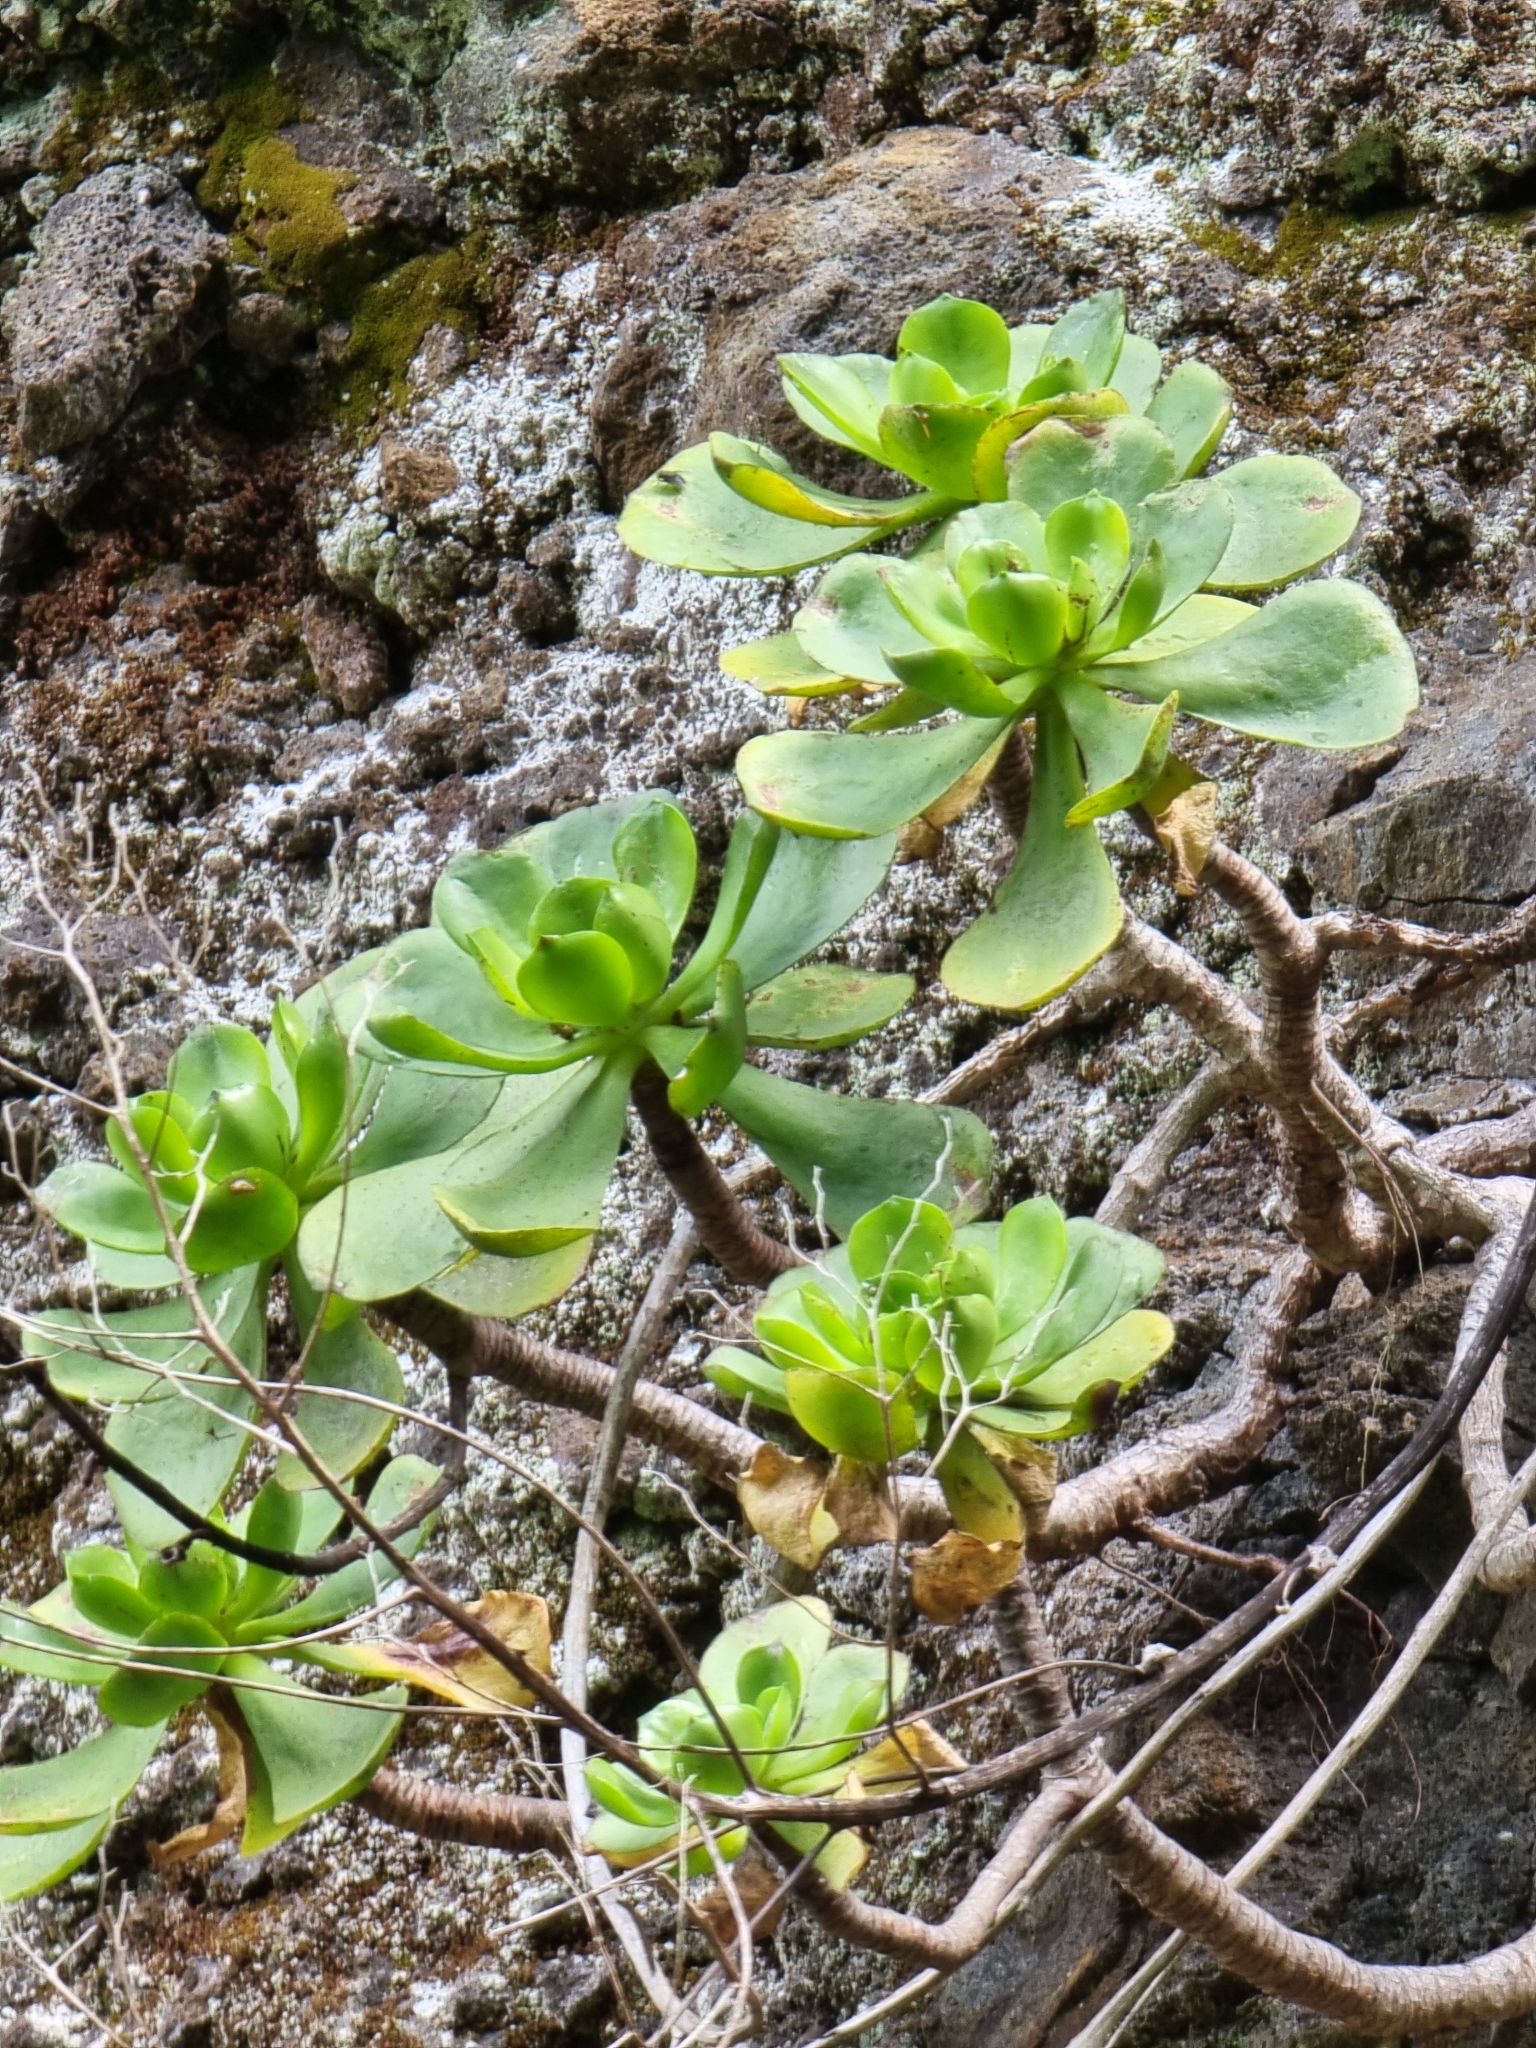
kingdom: Plantae
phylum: Tracheophyta
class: Magnoliopsida
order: Saxifragales
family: Crassulaceae
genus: Aeonium
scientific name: Aeonium glutinosum
